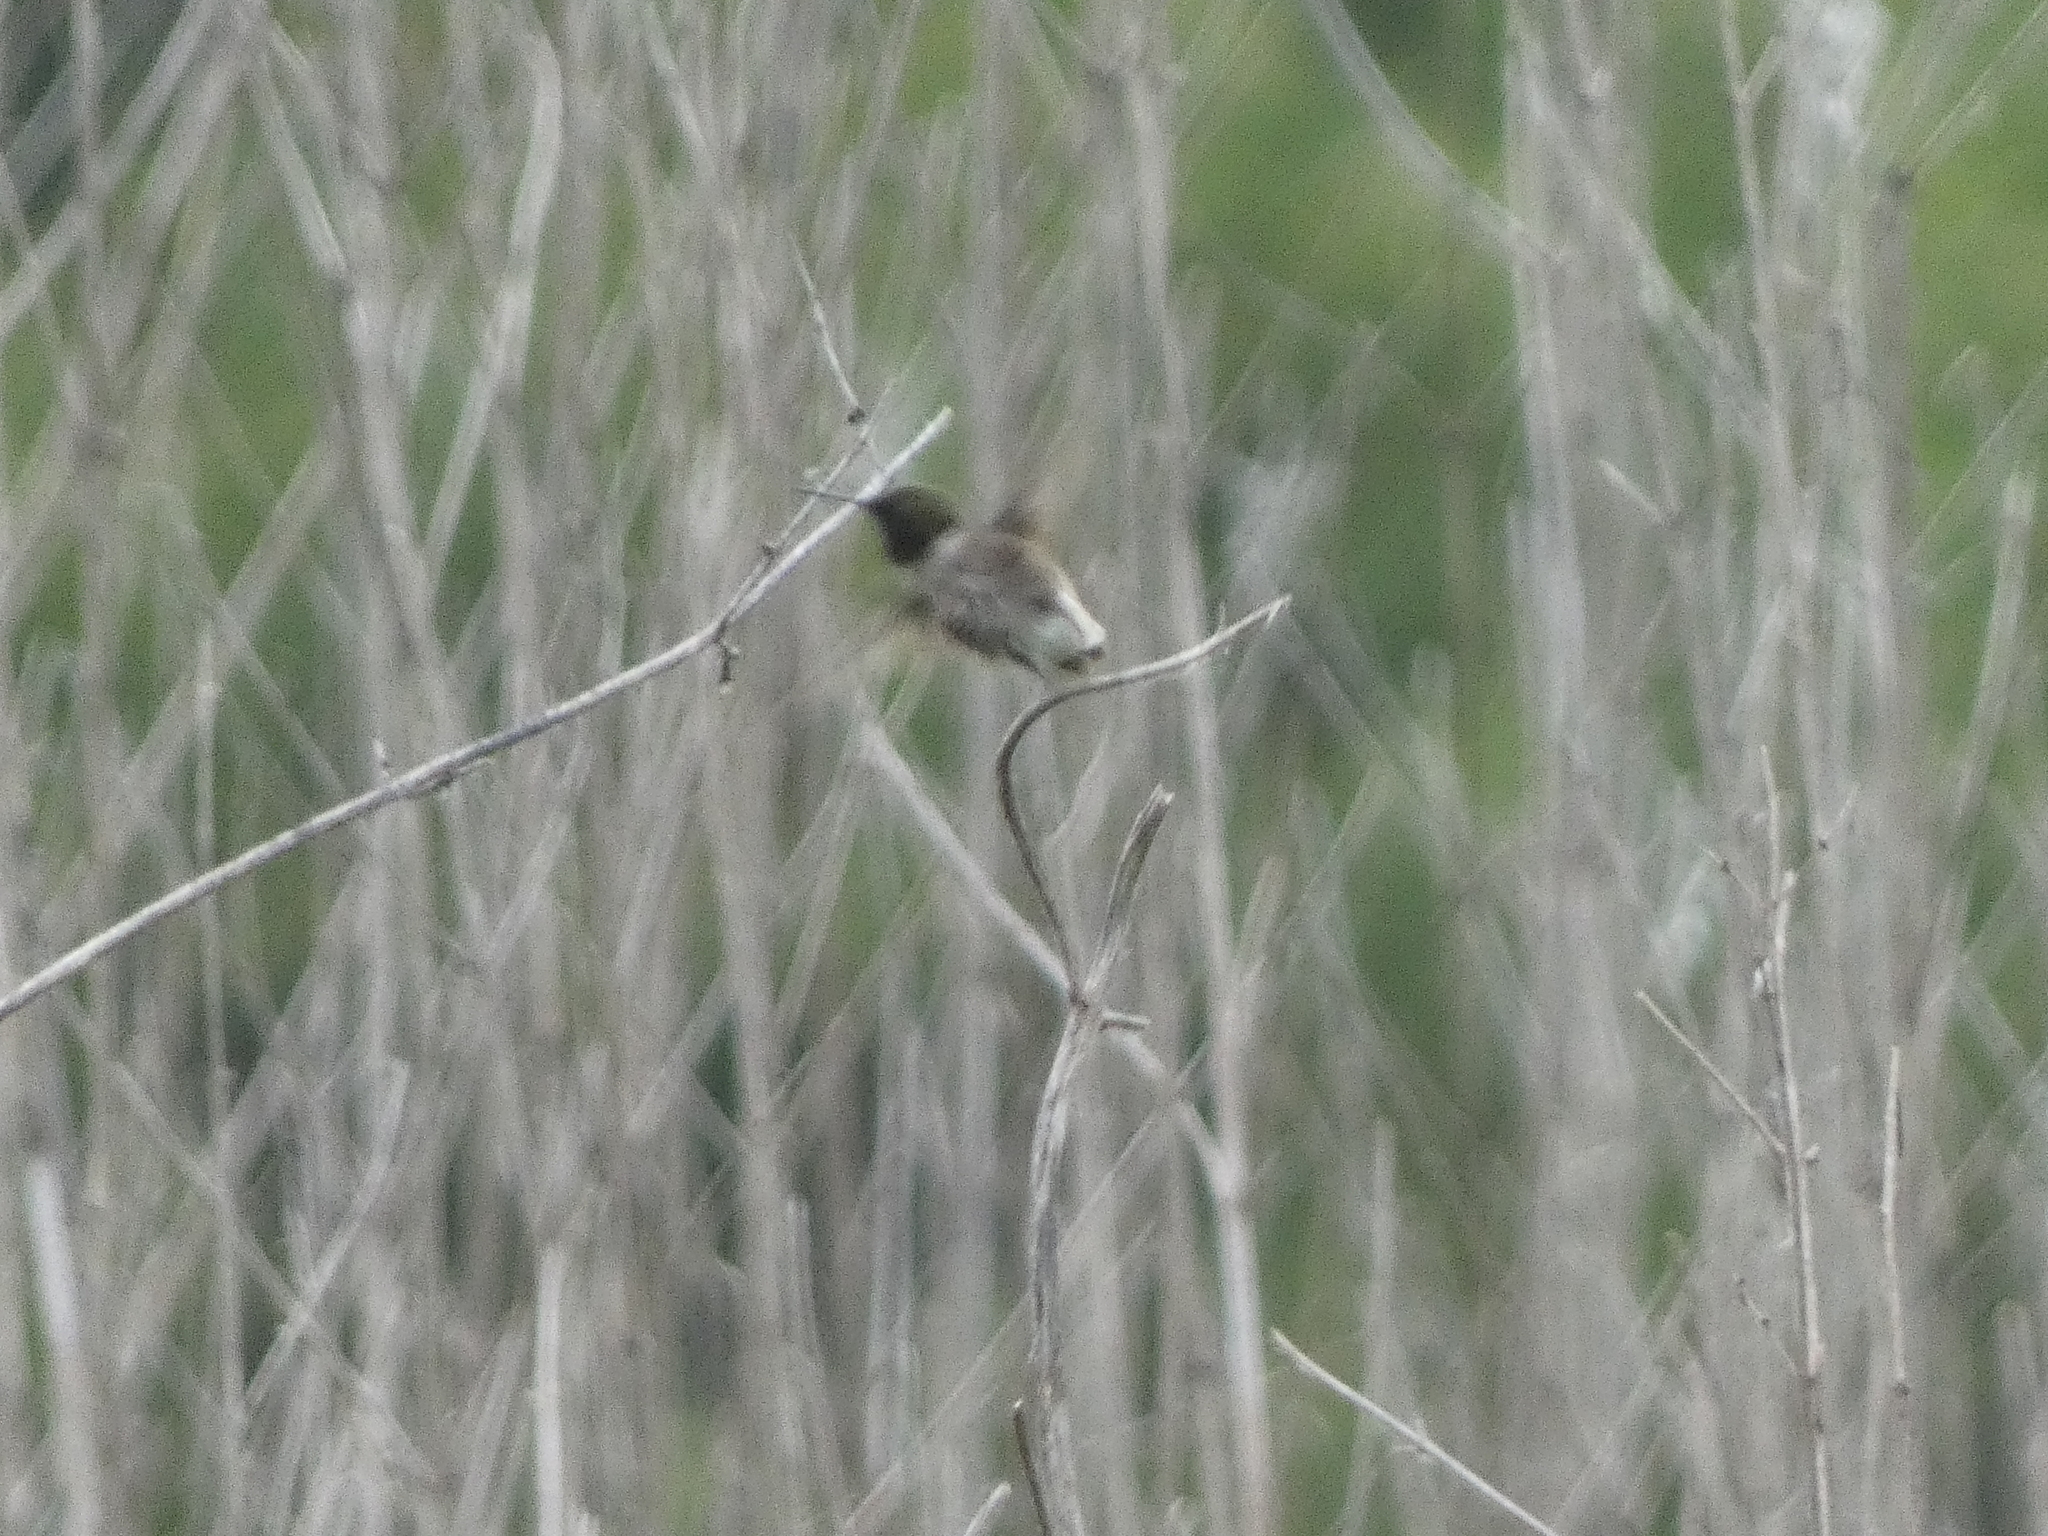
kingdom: Animalia
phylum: Chordata
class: Aves
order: Apodiformes
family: Trochilidae
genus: Archilochus
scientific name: Archilochus colubris
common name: Ruby-throated hummingbird
